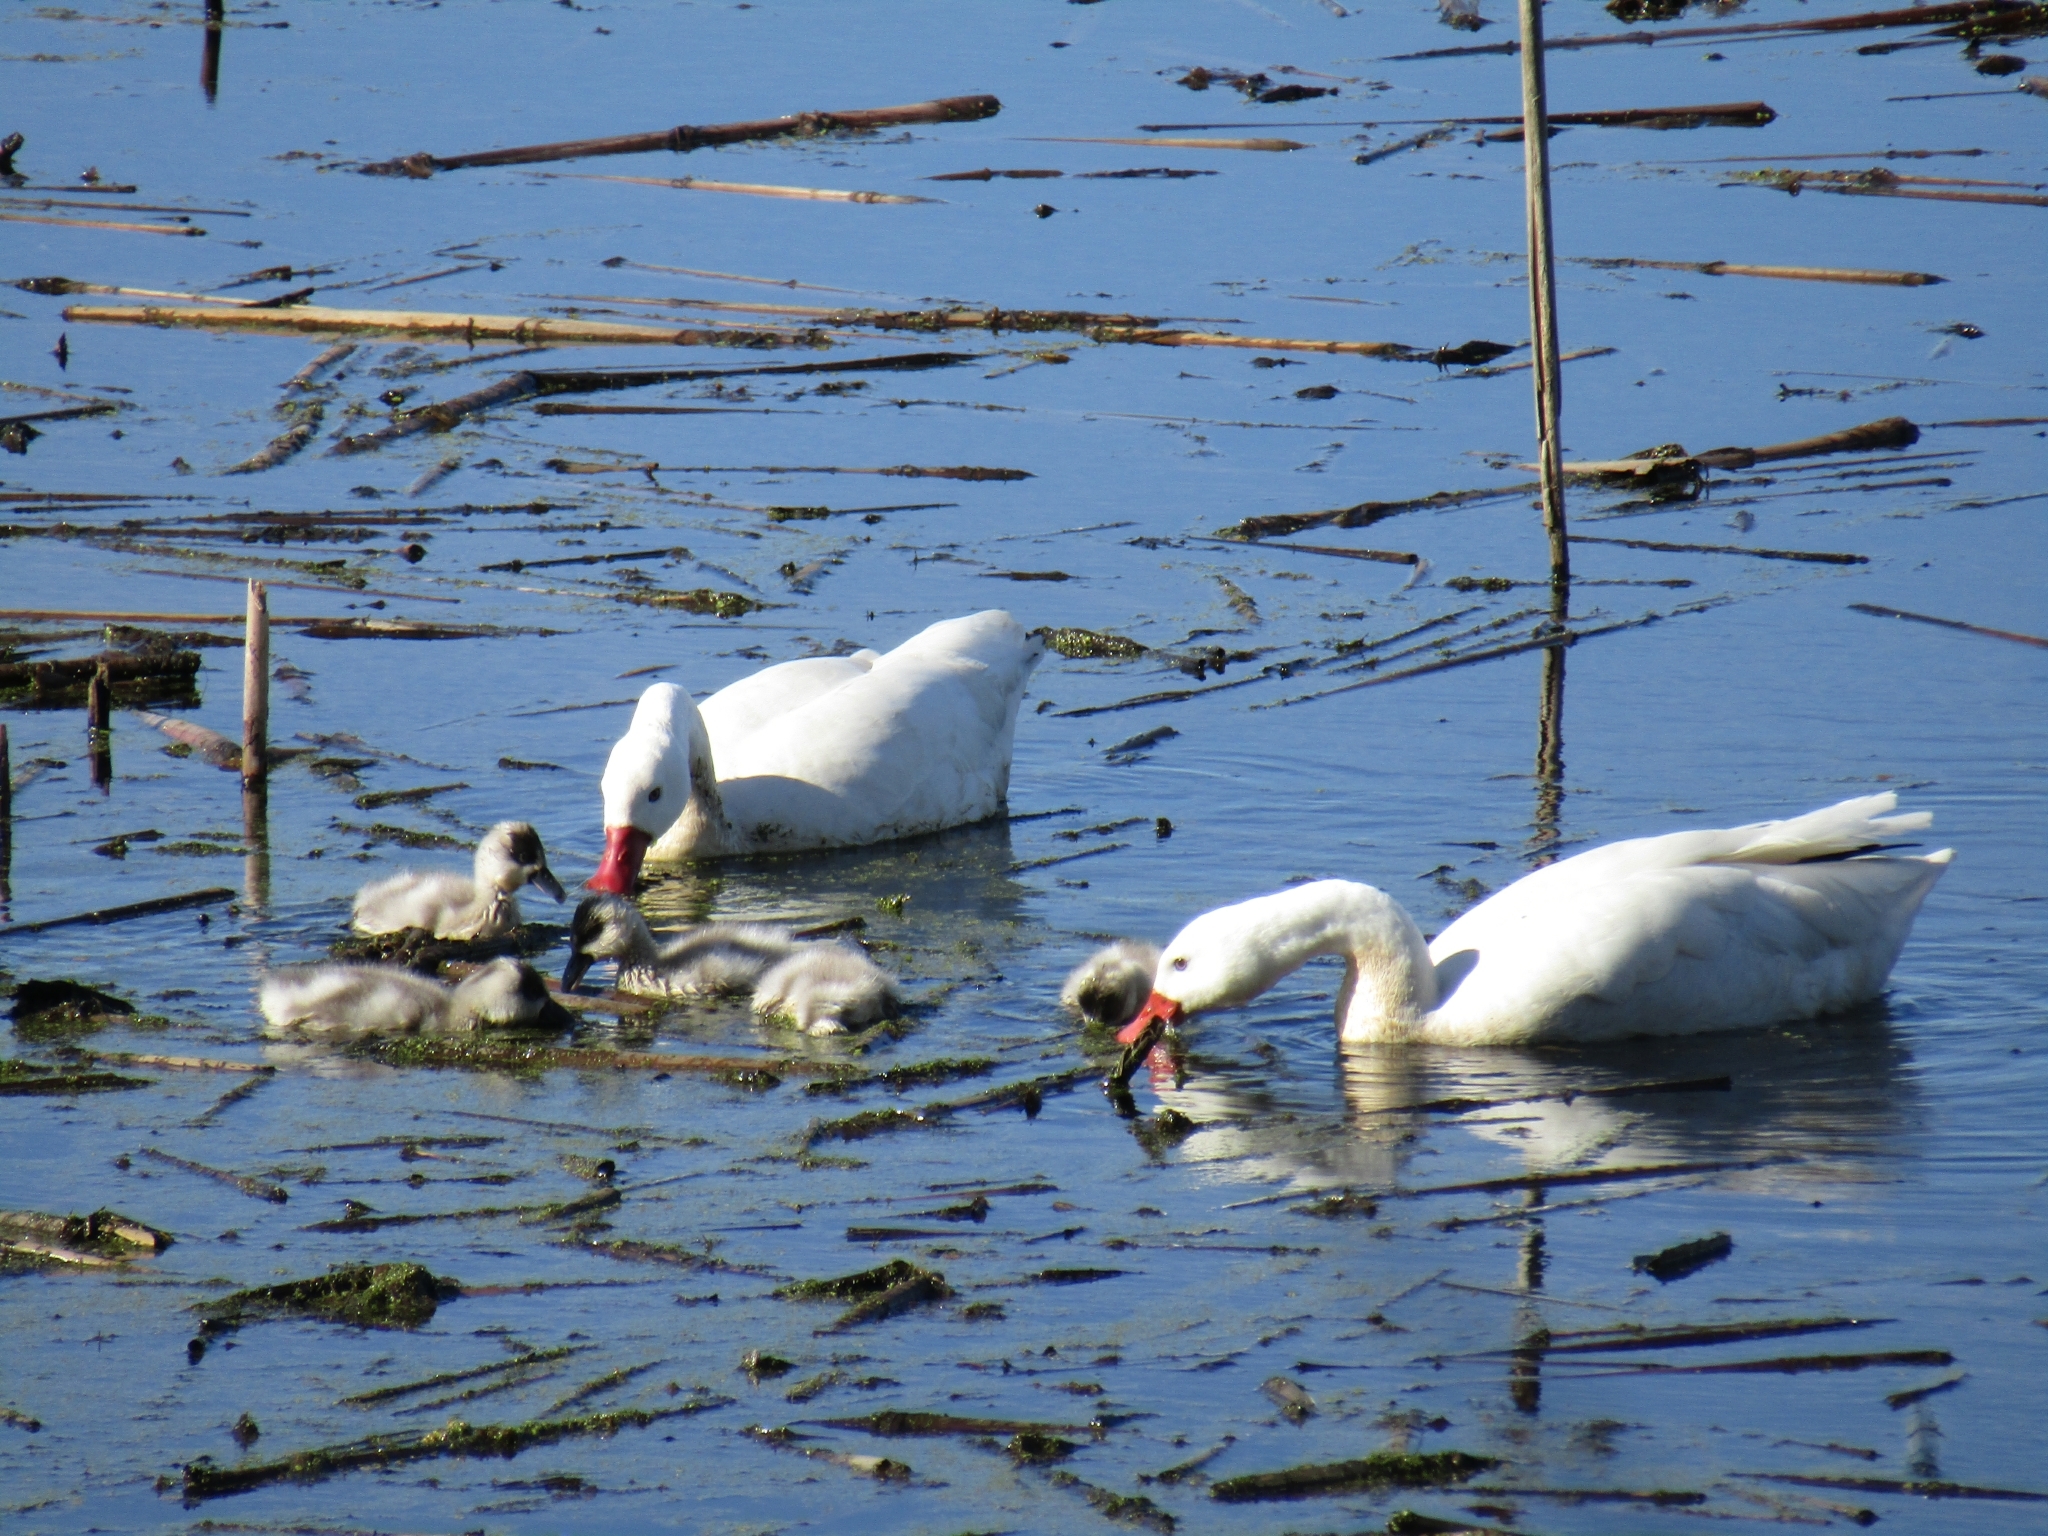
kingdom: Animalia
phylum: Chordata
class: Aves
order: Anseriformes
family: Anatidae
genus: Coscoroba
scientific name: Coscoroba coscoroba
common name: Coscoroba swan
